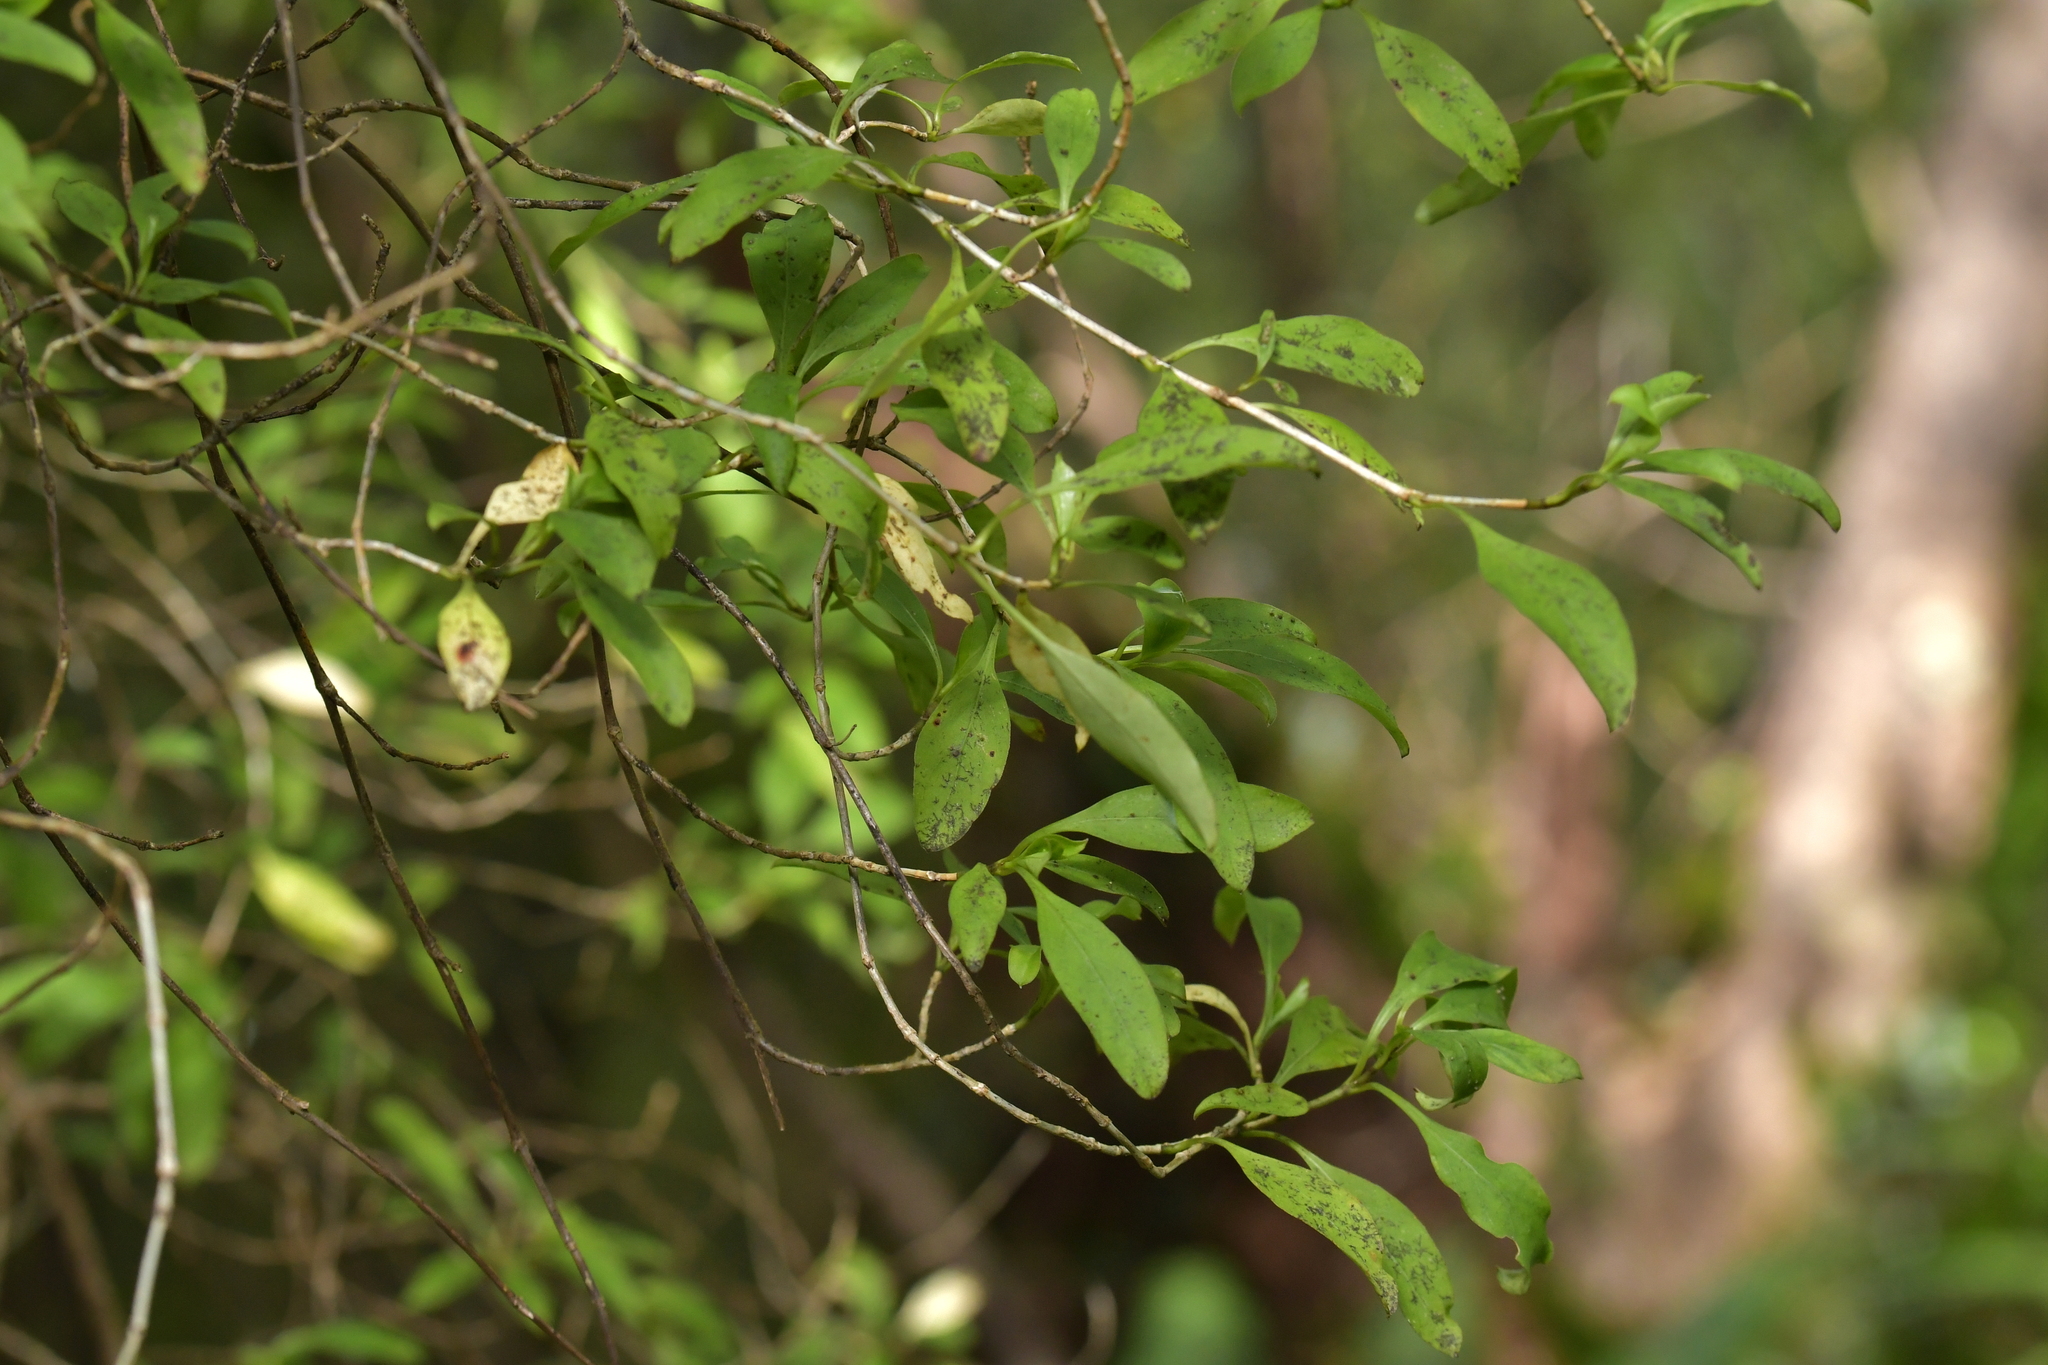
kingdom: Plantae
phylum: Tracheophyta
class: Magnoliopsida
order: Gentianales
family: Rubiaceae
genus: Coprosma
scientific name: Coprosma foetidissima
